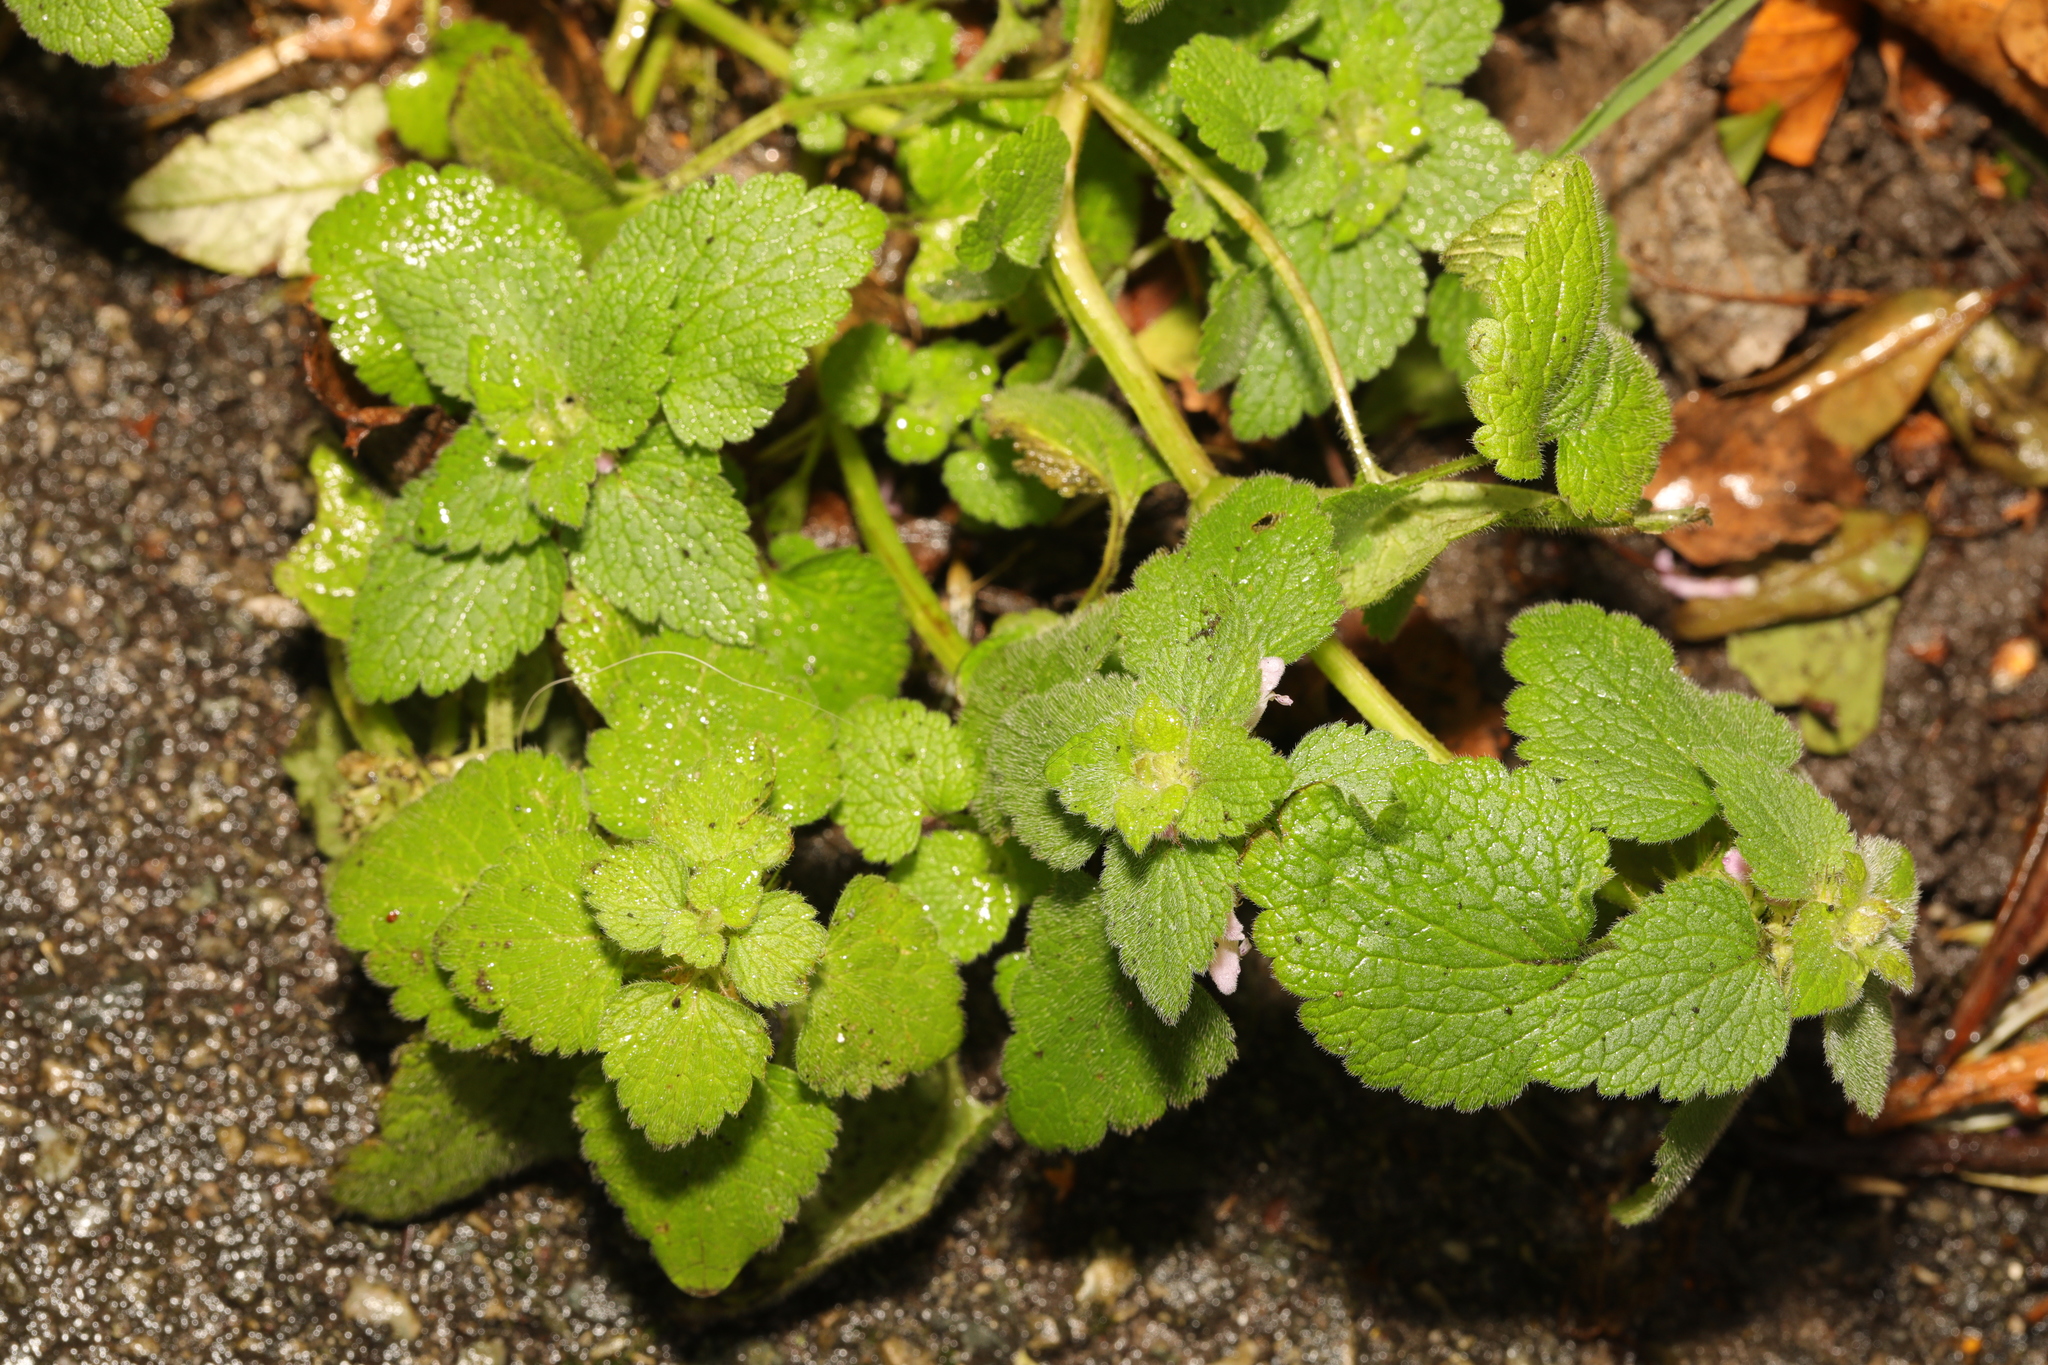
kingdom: Plantae
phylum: Tracheophyta
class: Magnoliopsida
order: Lamiales
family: Lamiaceae
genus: Lamium
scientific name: Lamium purpureum
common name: Red dead-nettle
